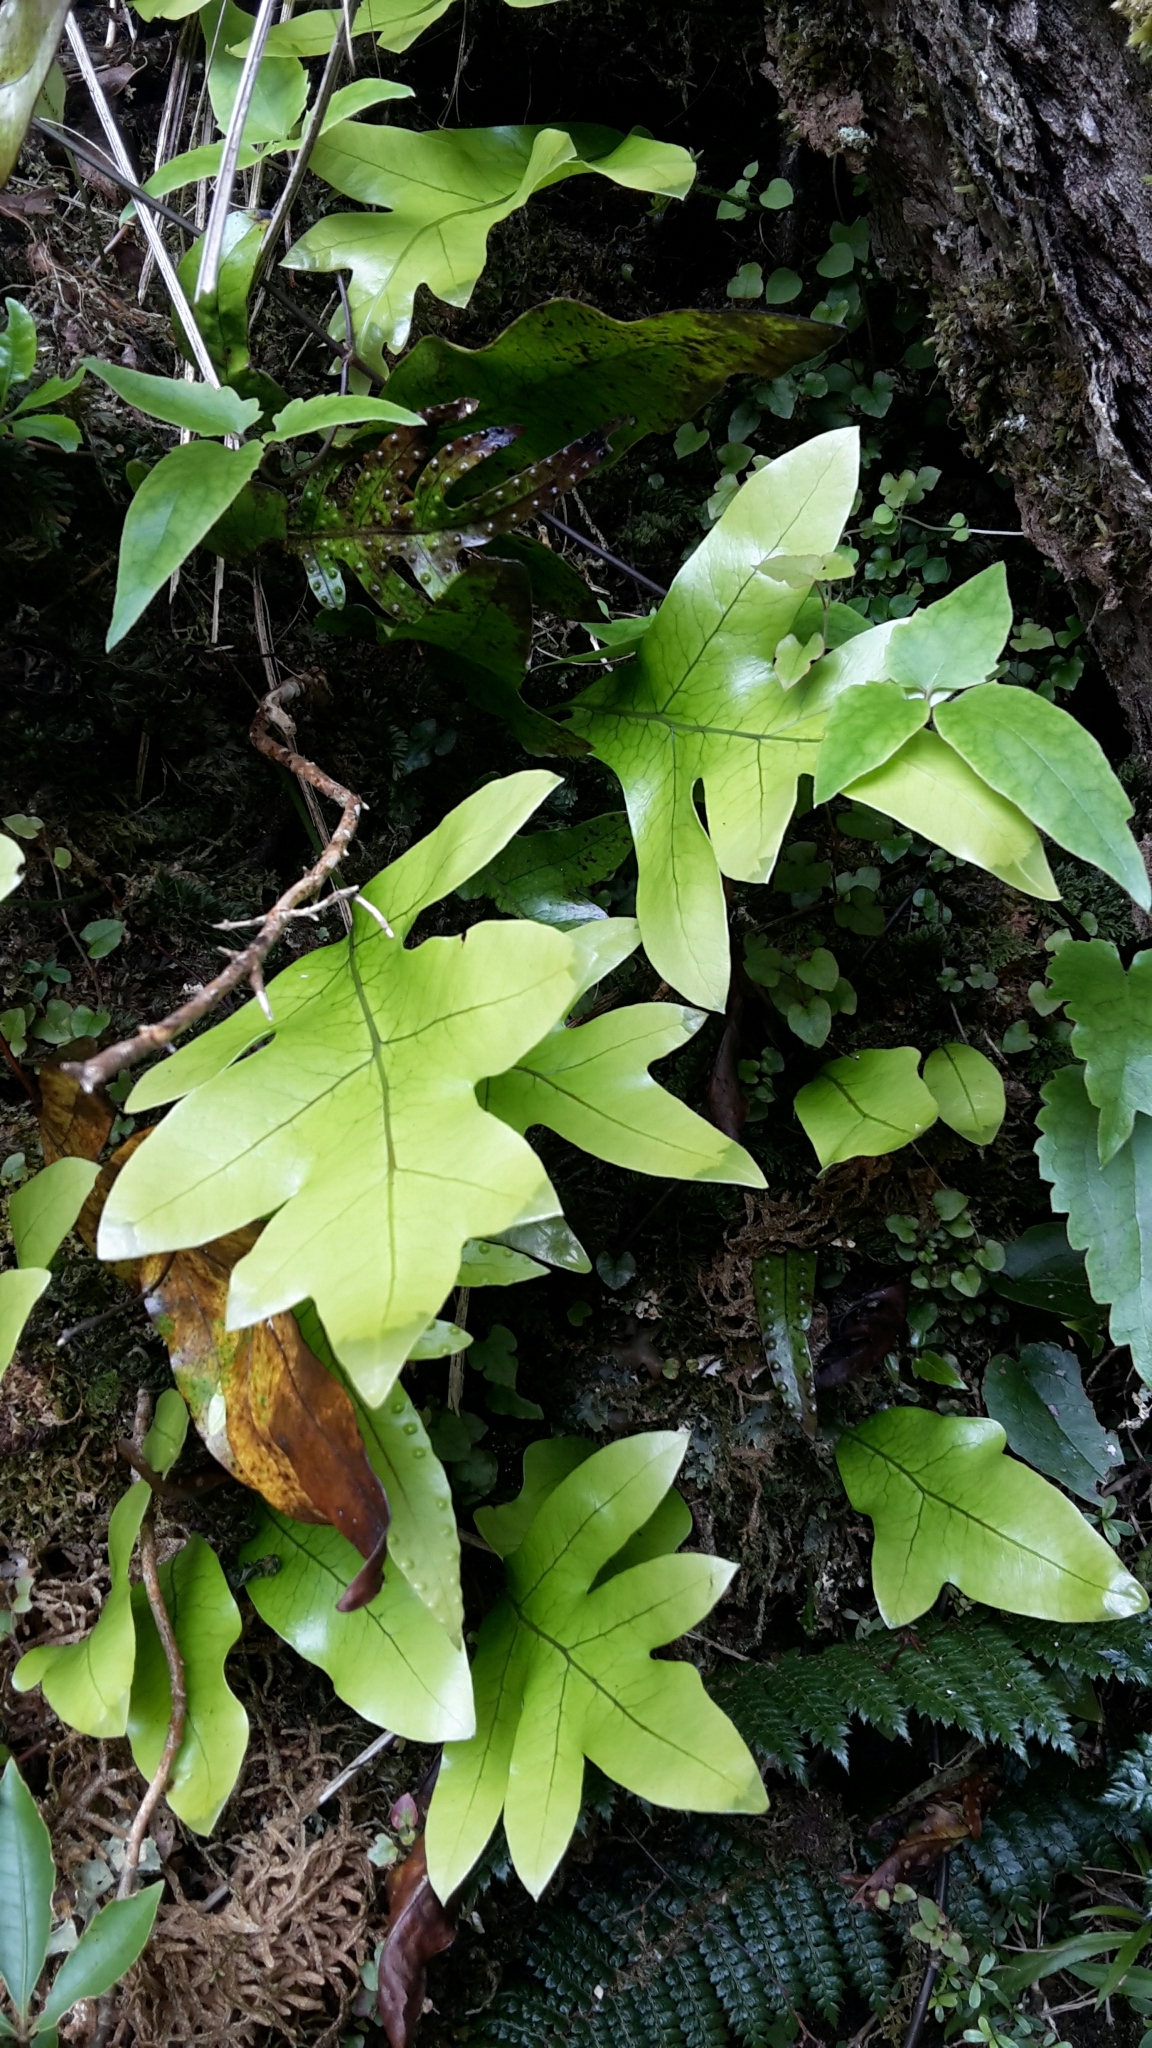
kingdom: Plantae
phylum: Tracheophyta
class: Polypodiopsida
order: Polypodiales
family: Polypodiaceae
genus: Lecanopteris
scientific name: Lecanopteris pustulata
